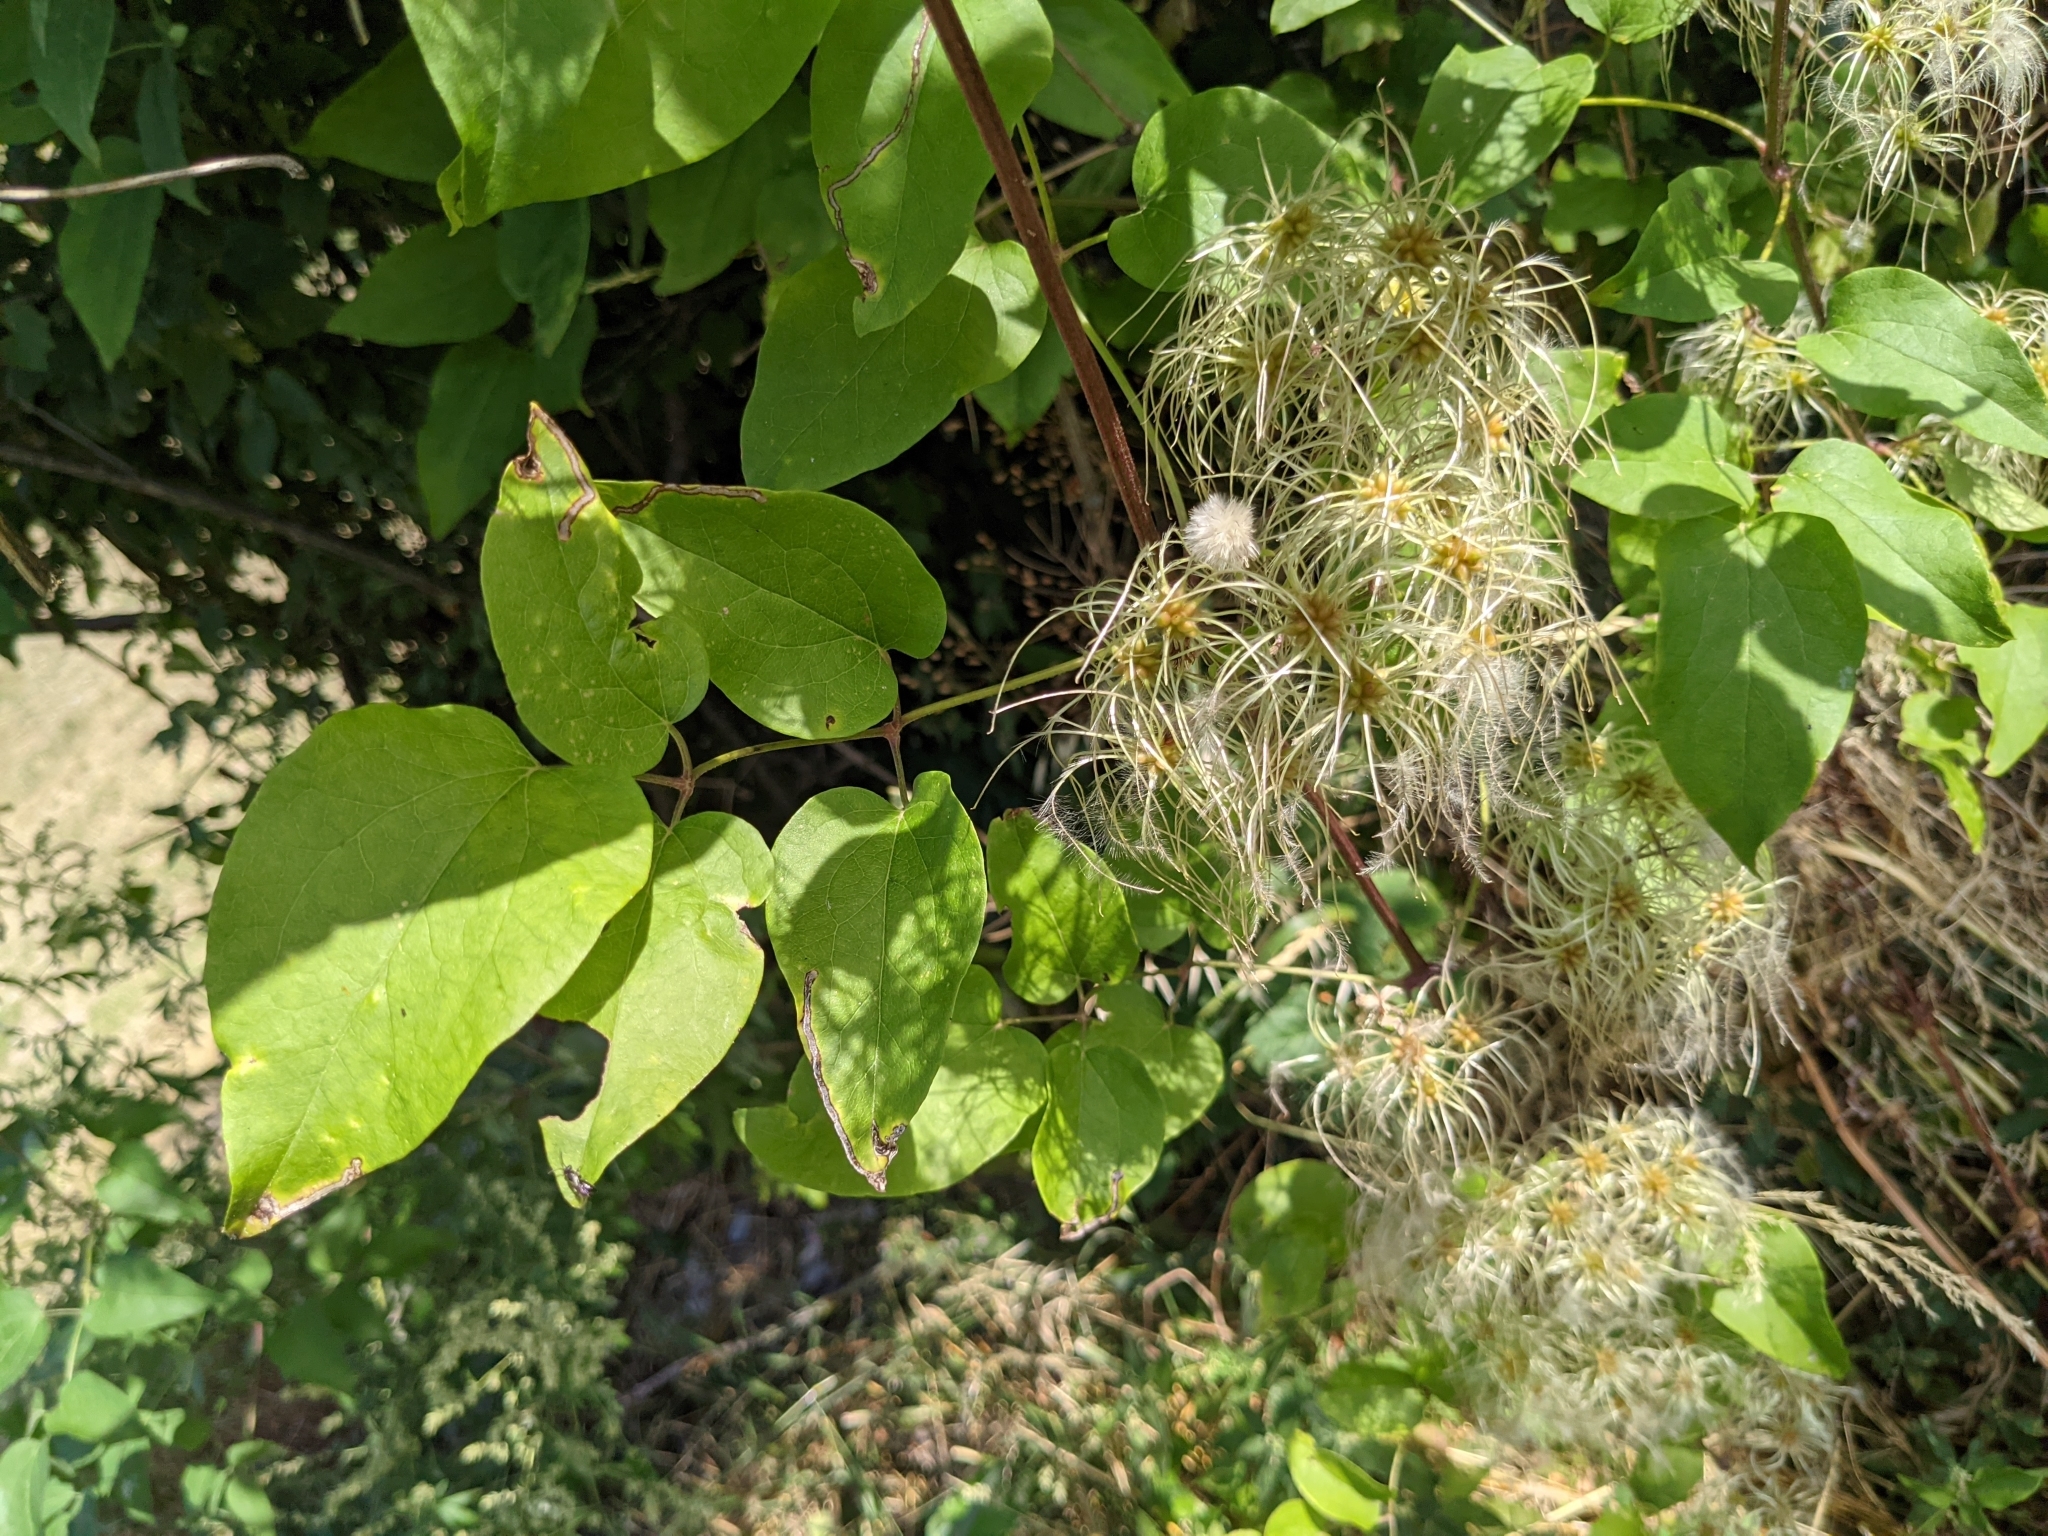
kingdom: Plantae
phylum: Tracheophyta
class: Magnoliopsida
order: Ranunculales
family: Ranunculaceae
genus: Clematis
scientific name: Clematis vitalba
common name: Evergreen clematis
